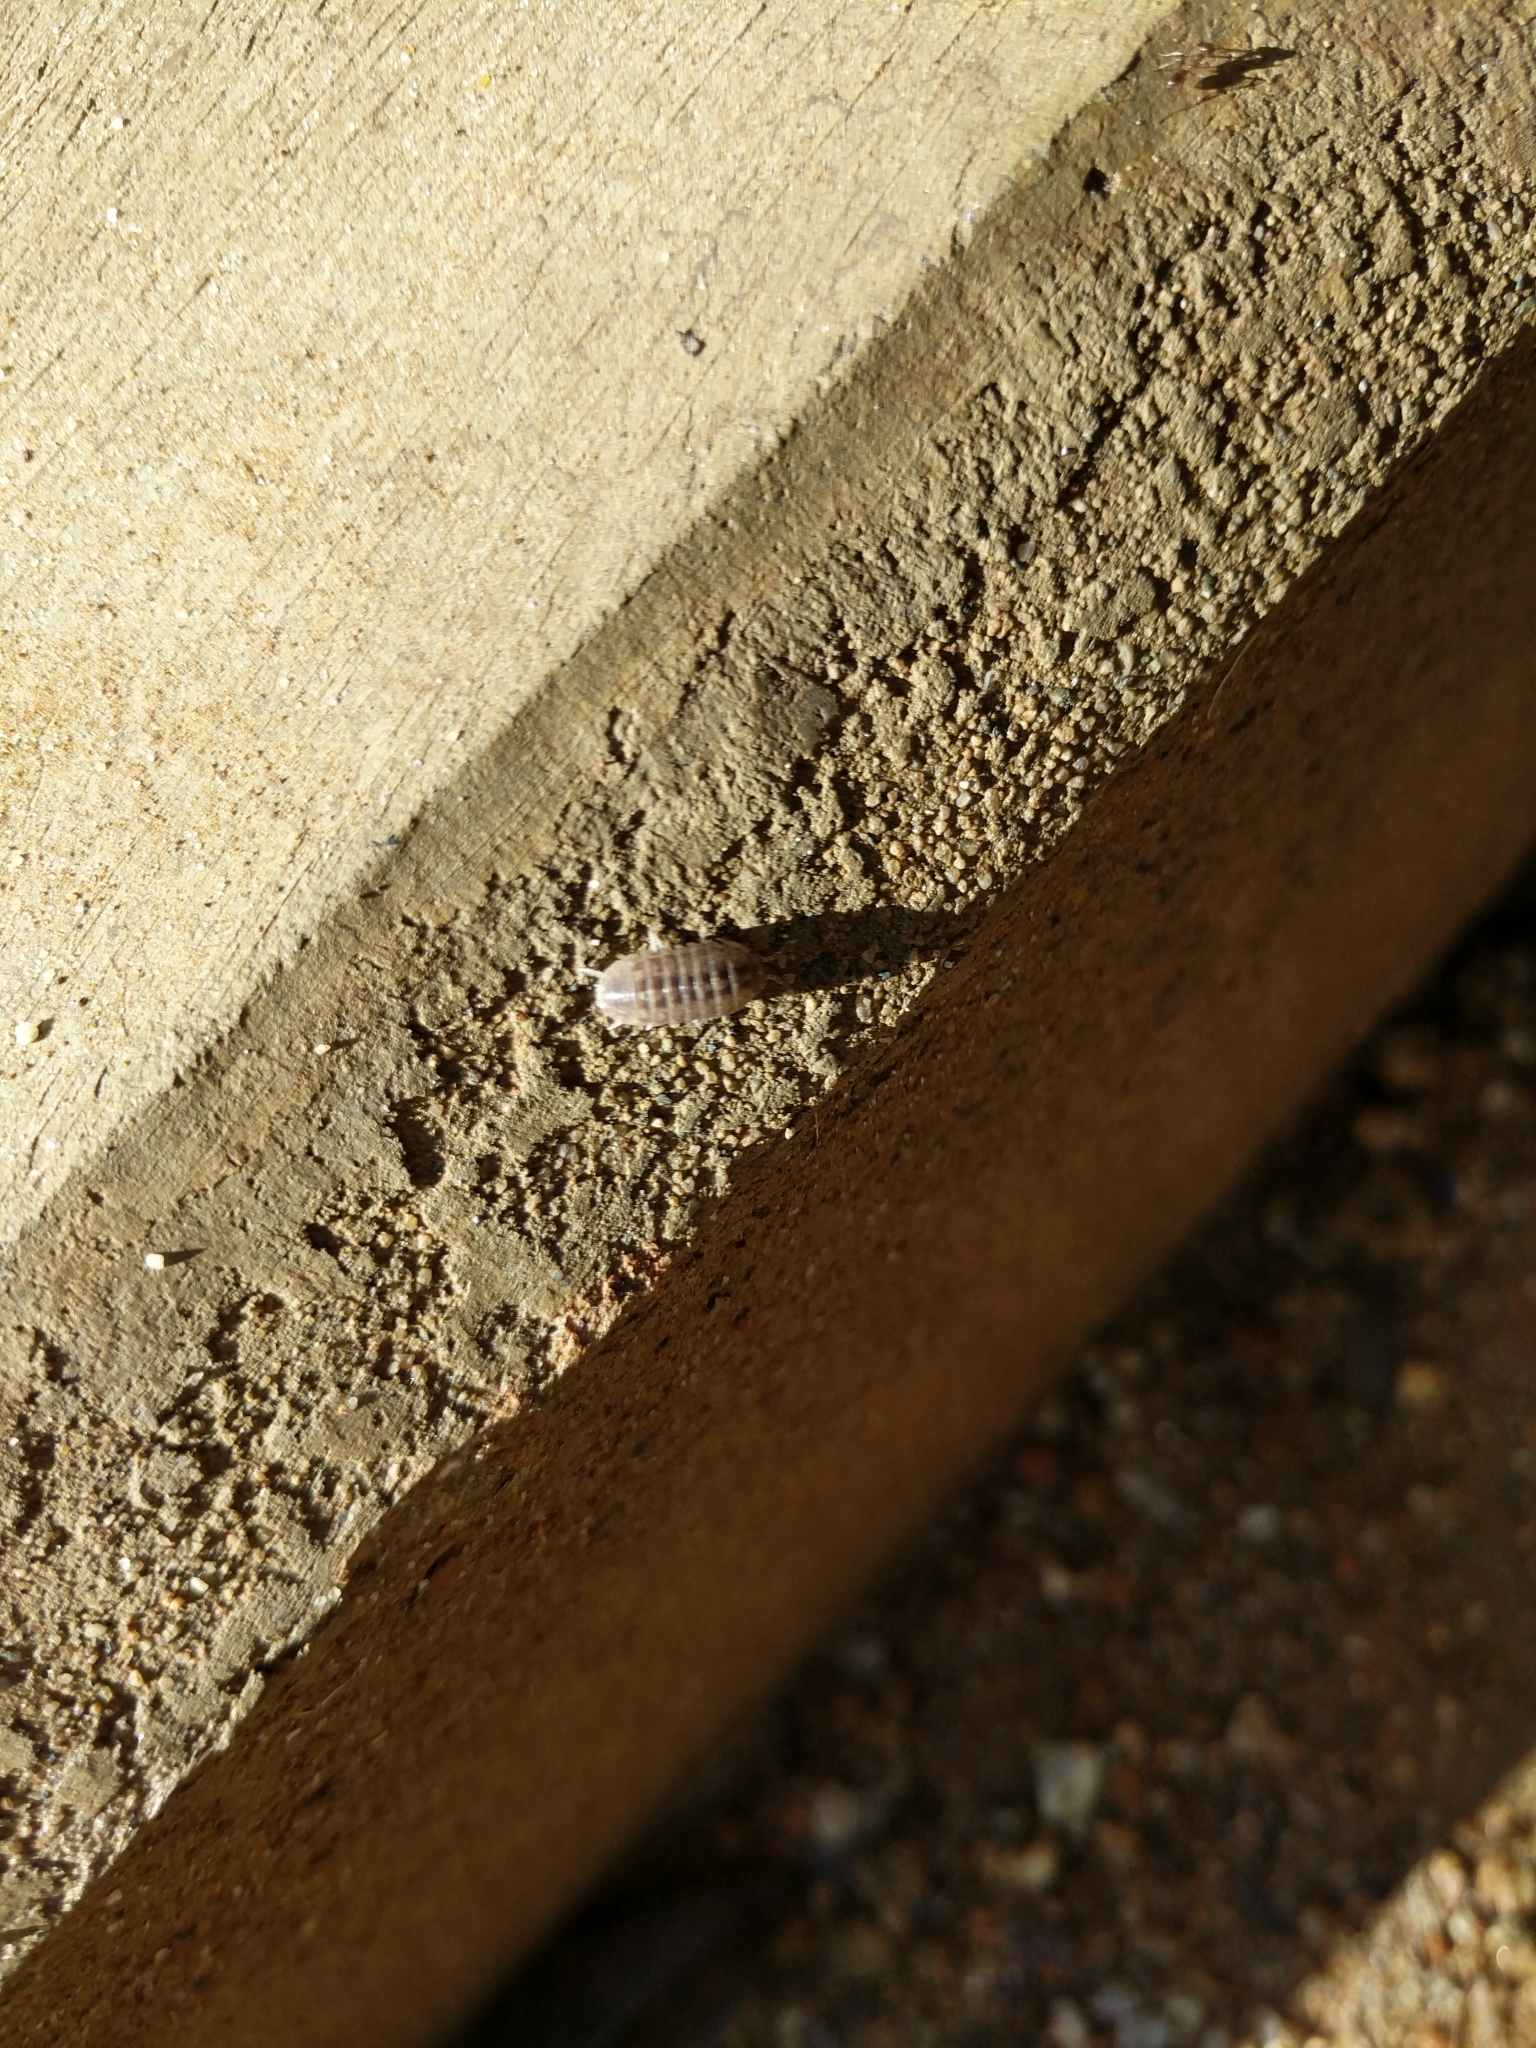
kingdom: Animalia
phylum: Arthropoda
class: Malacostraca
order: Isopoda
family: Armadillidiidae
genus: Armadillidium
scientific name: Armadillidium vulgare
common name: Common pill woodlouse
